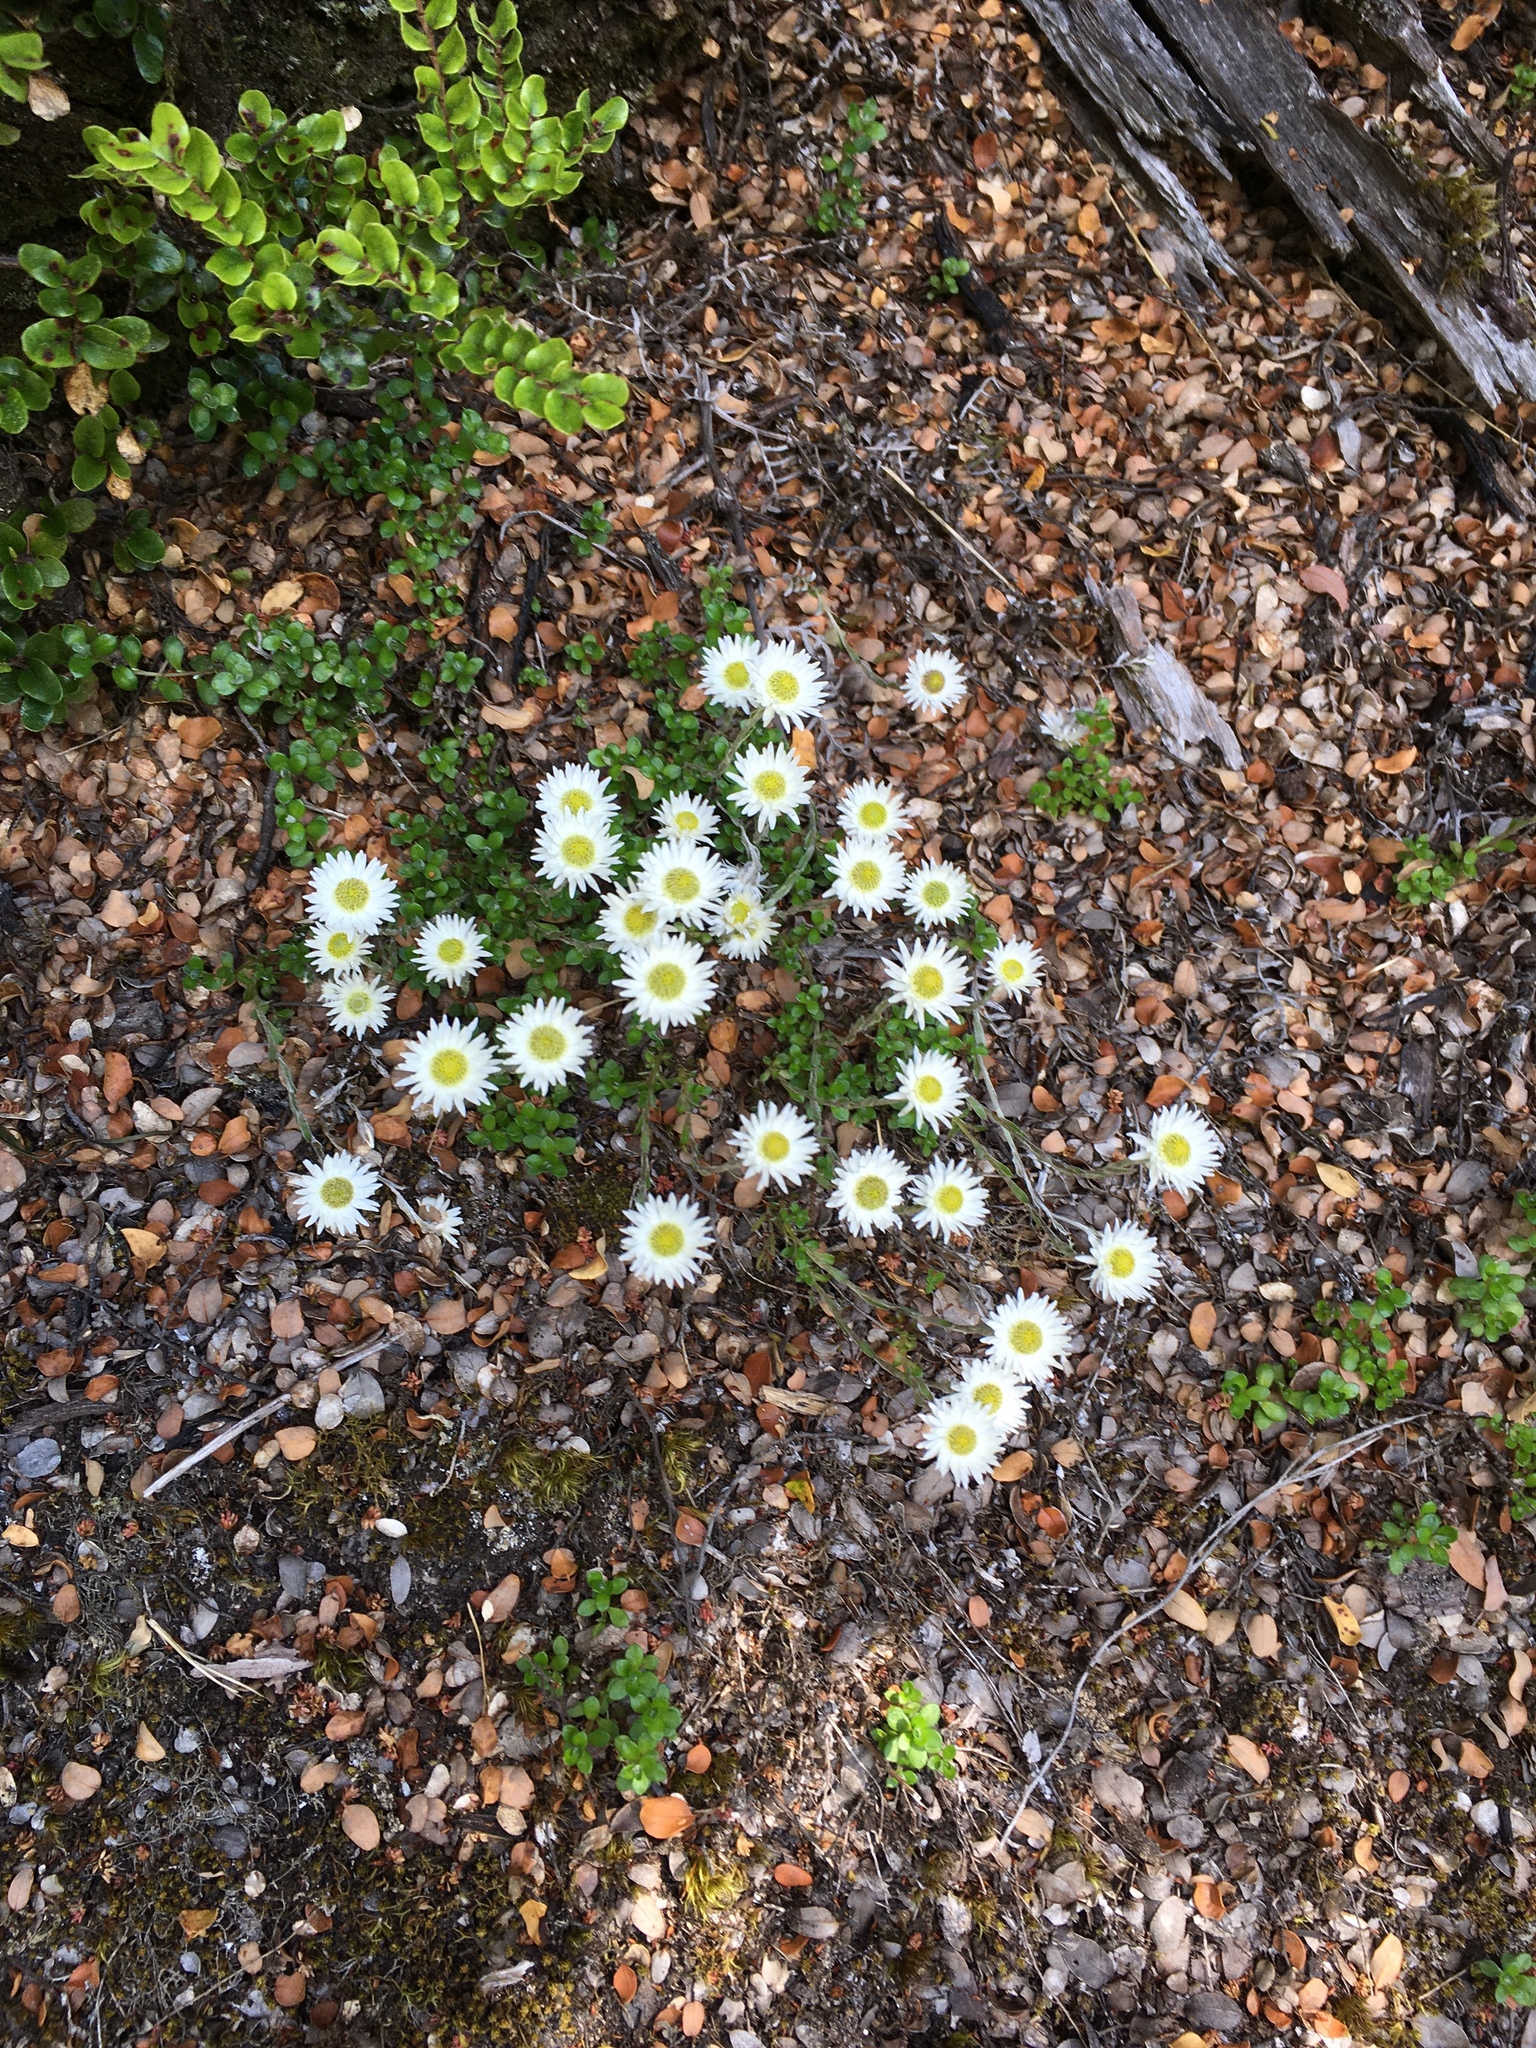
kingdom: Plantae
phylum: Tracheophyta
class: Magnoliopsida
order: Asterales
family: Asteraceae
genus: Anaphalioides
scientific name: Anaphalioides bellidioides
